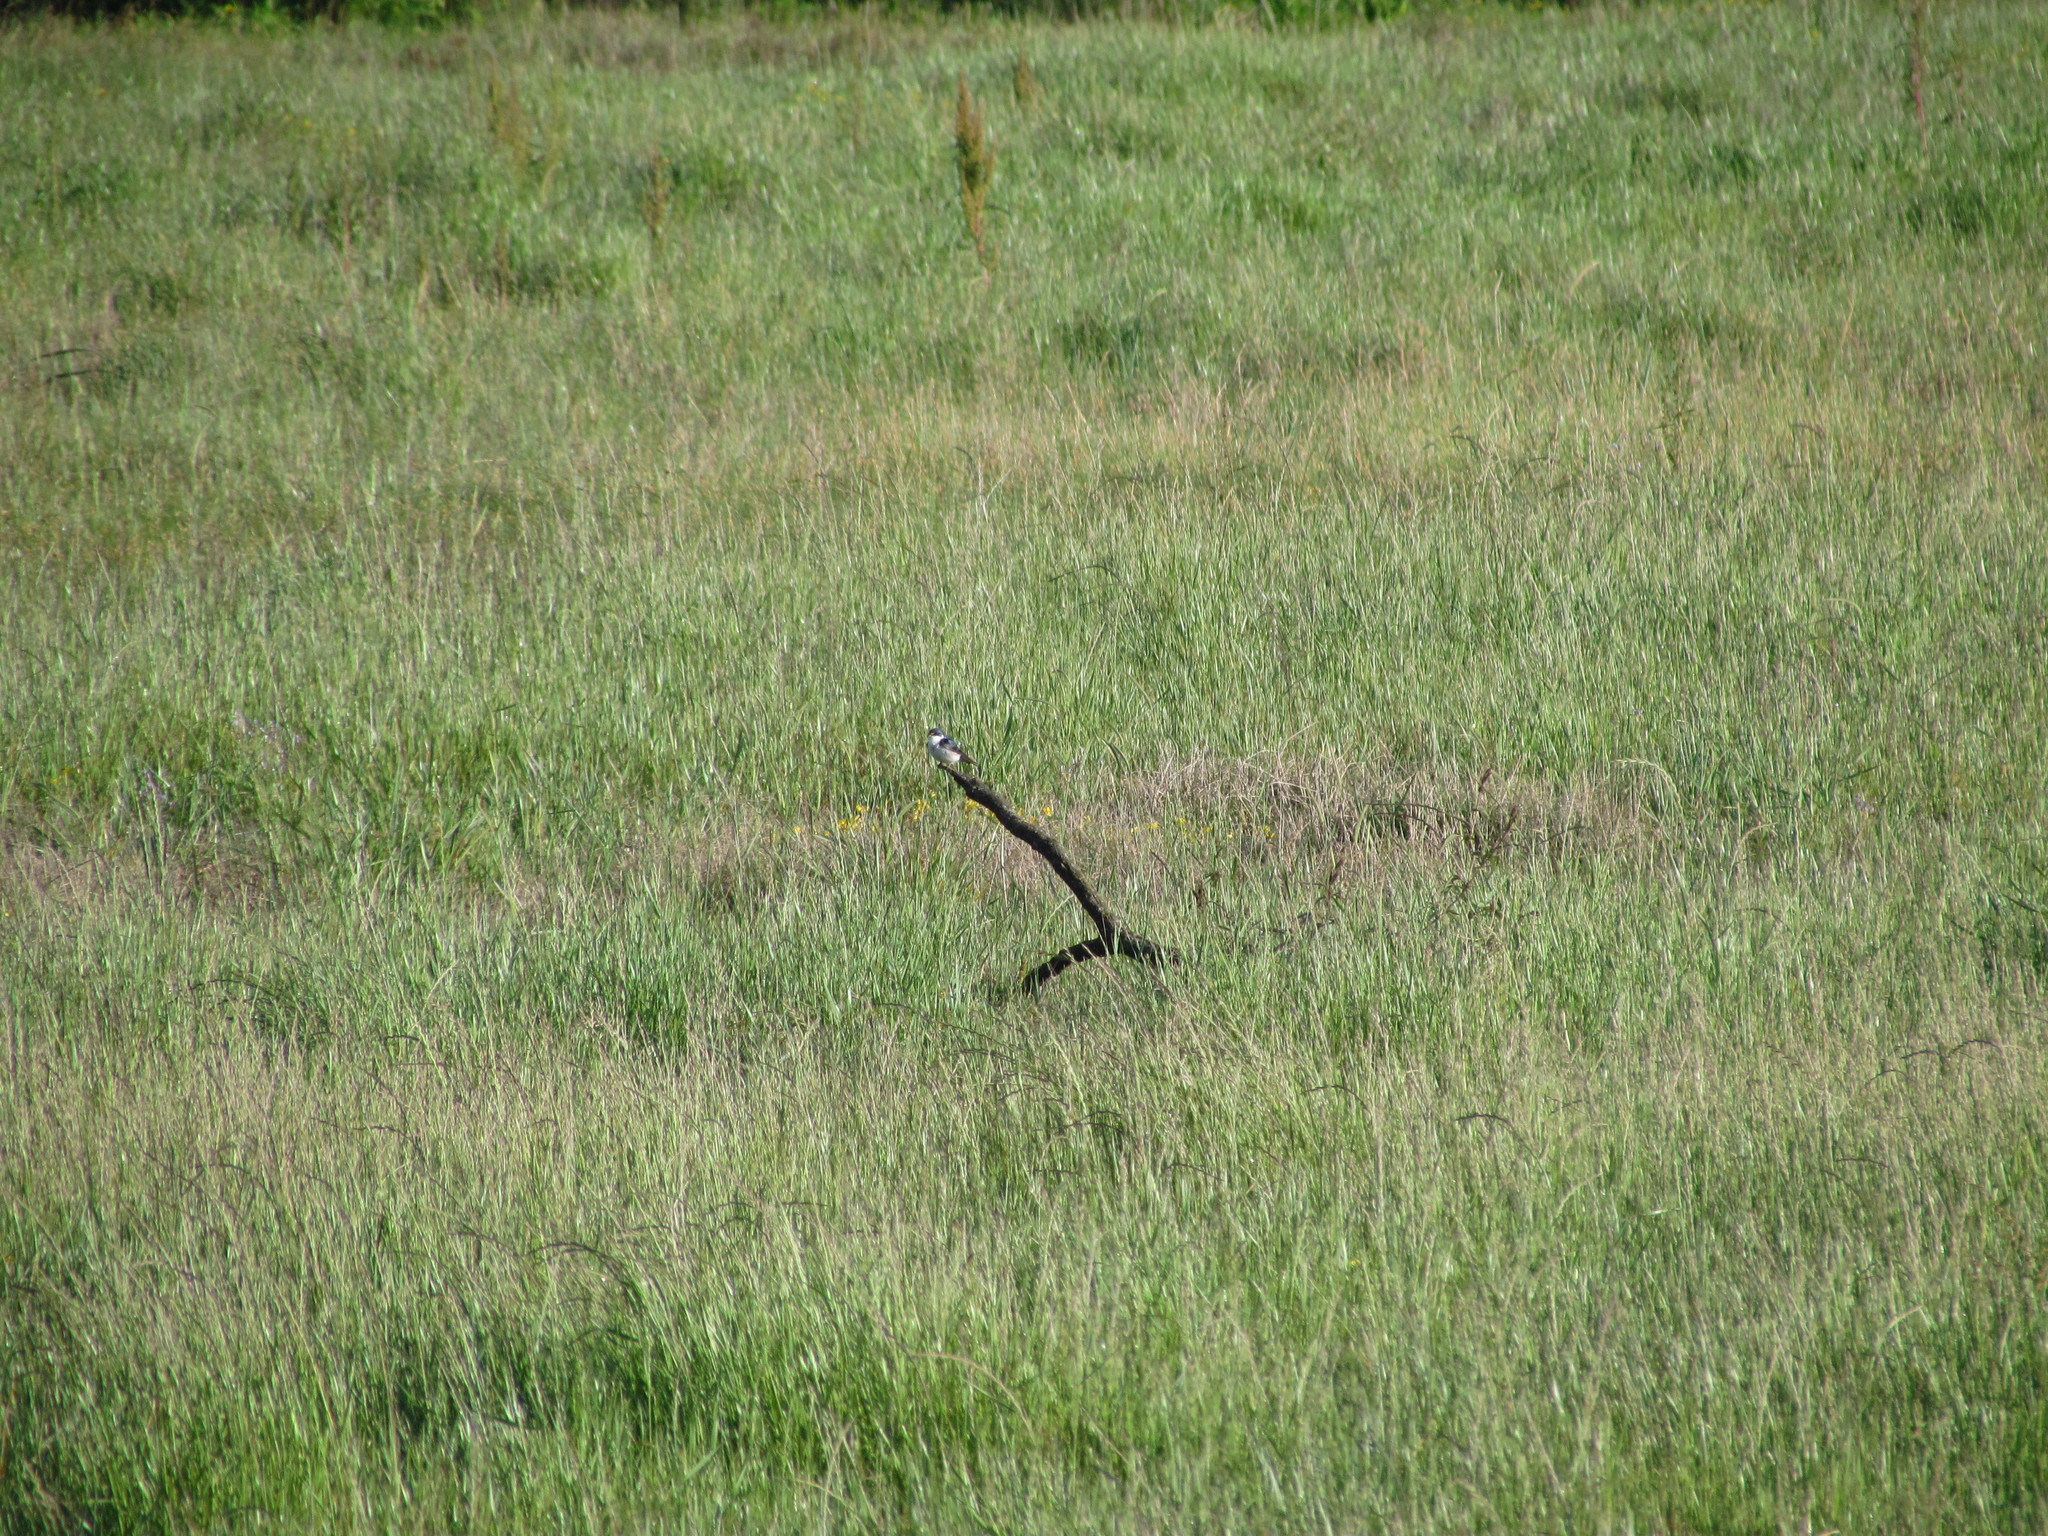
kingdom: Animalia
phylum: Chordata
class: Aves
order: Passeriformes
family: Hirundinidae
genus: Tachycineta
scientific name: Tachycineta leucorrhoa
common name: White-rumped swallow
